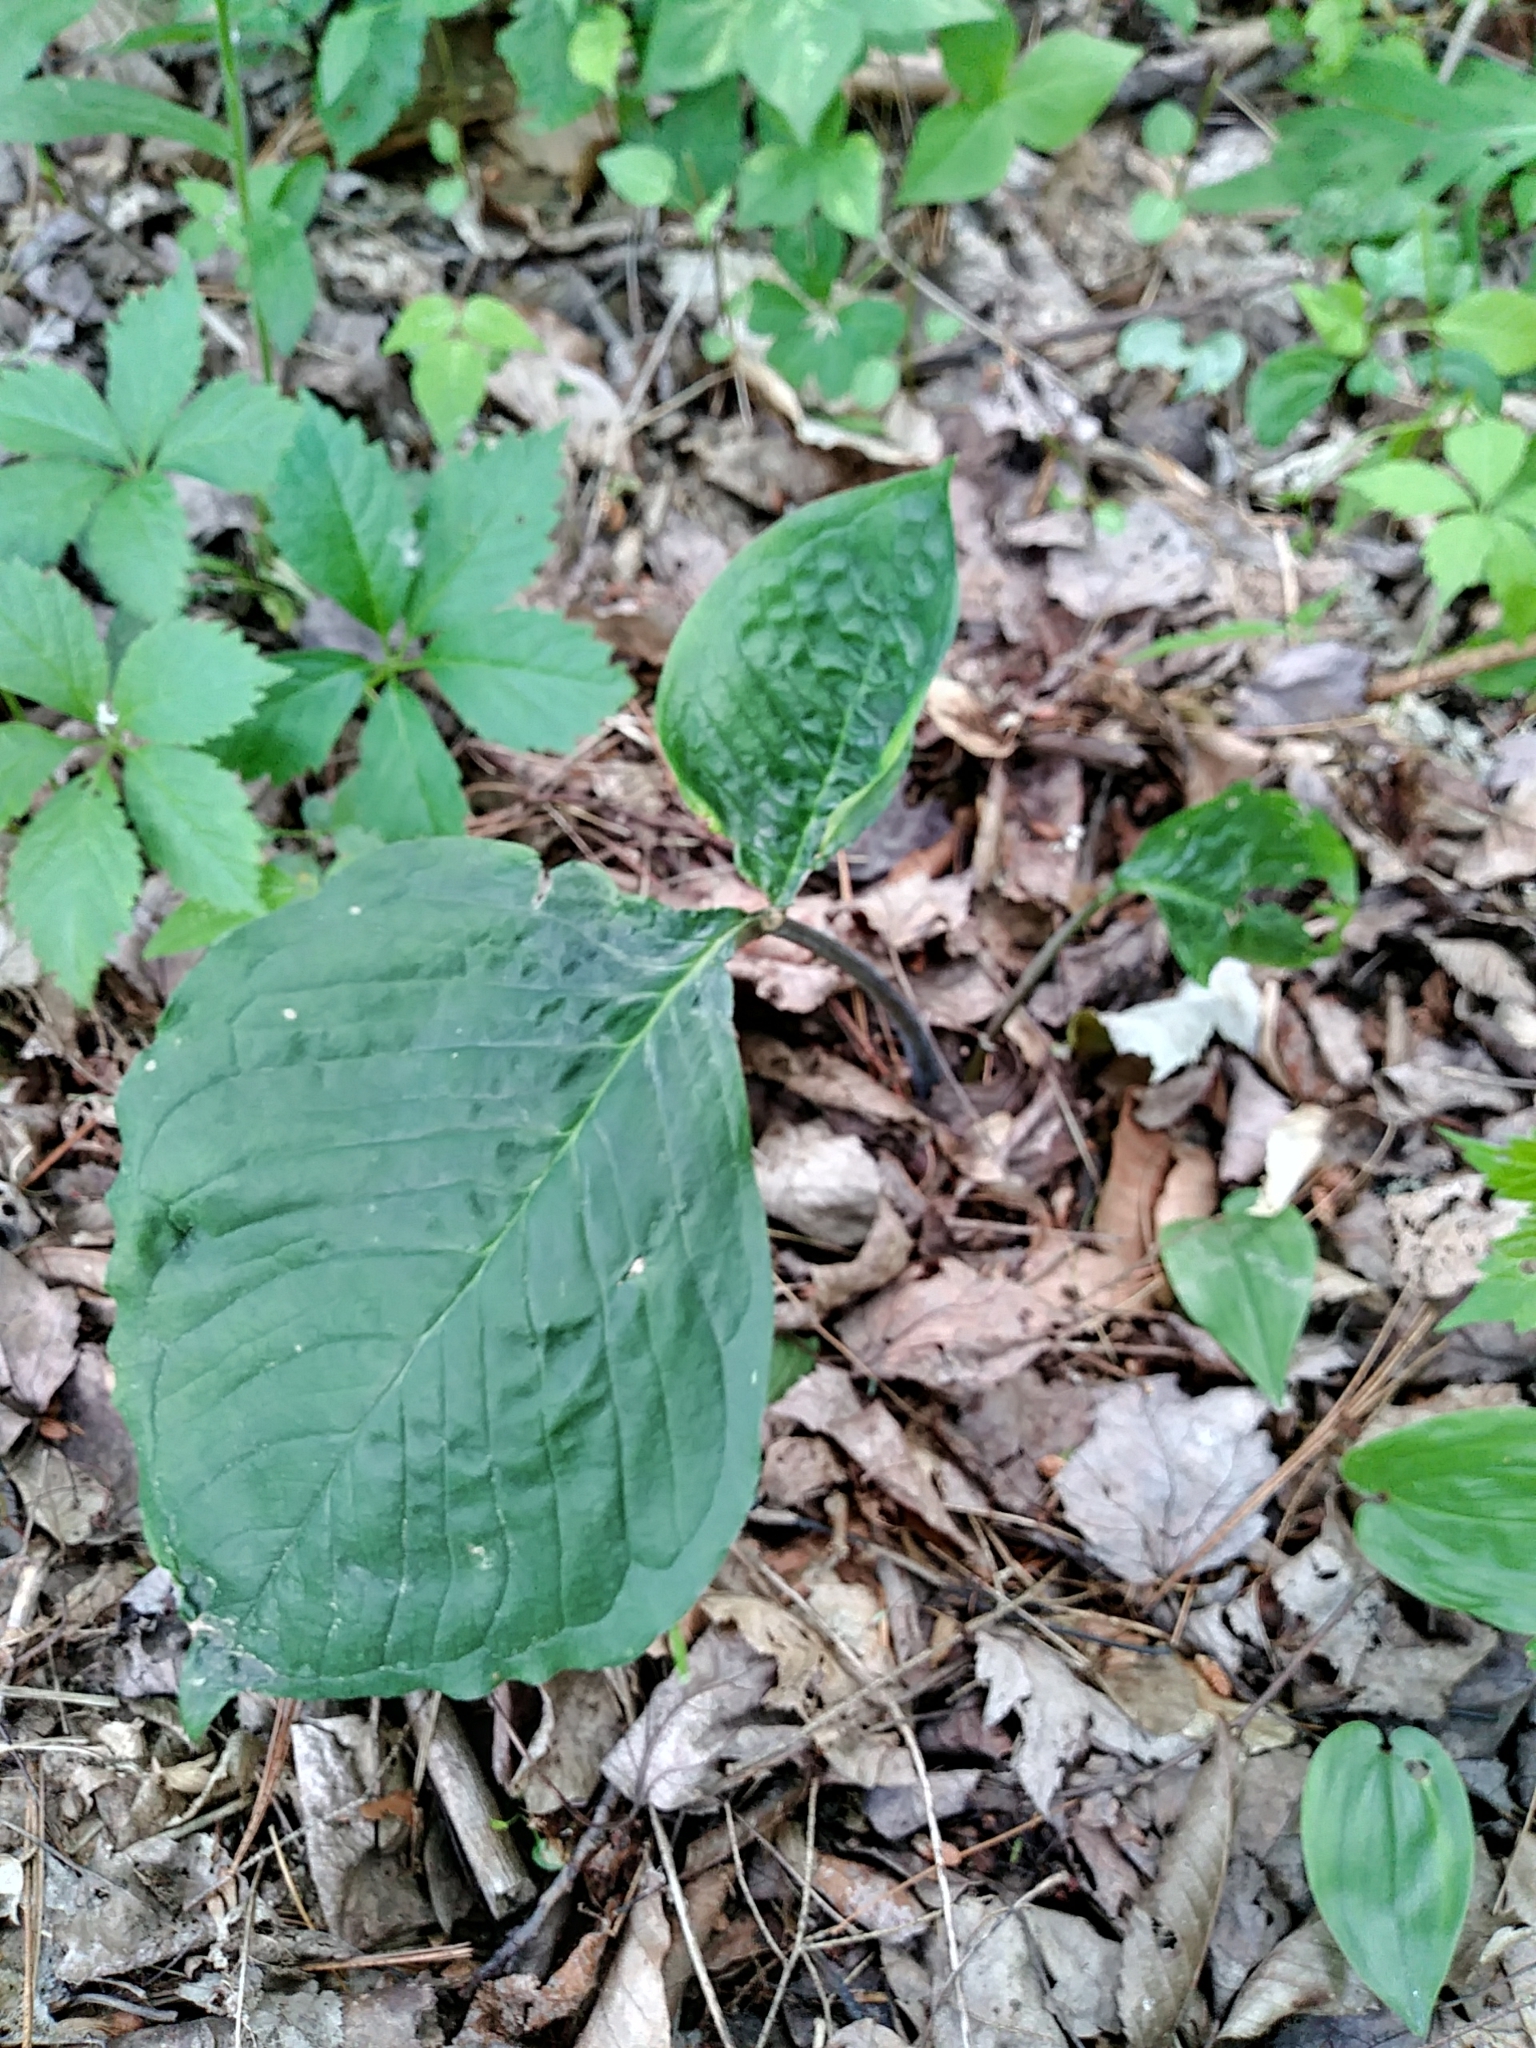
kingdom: Plantae
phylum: Tracheophyta
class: Liliopsida
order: Alismatales
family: Araceae
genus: Arisaema
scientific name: Arisaema triphyllum
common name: Jack-in-the-pulpit
